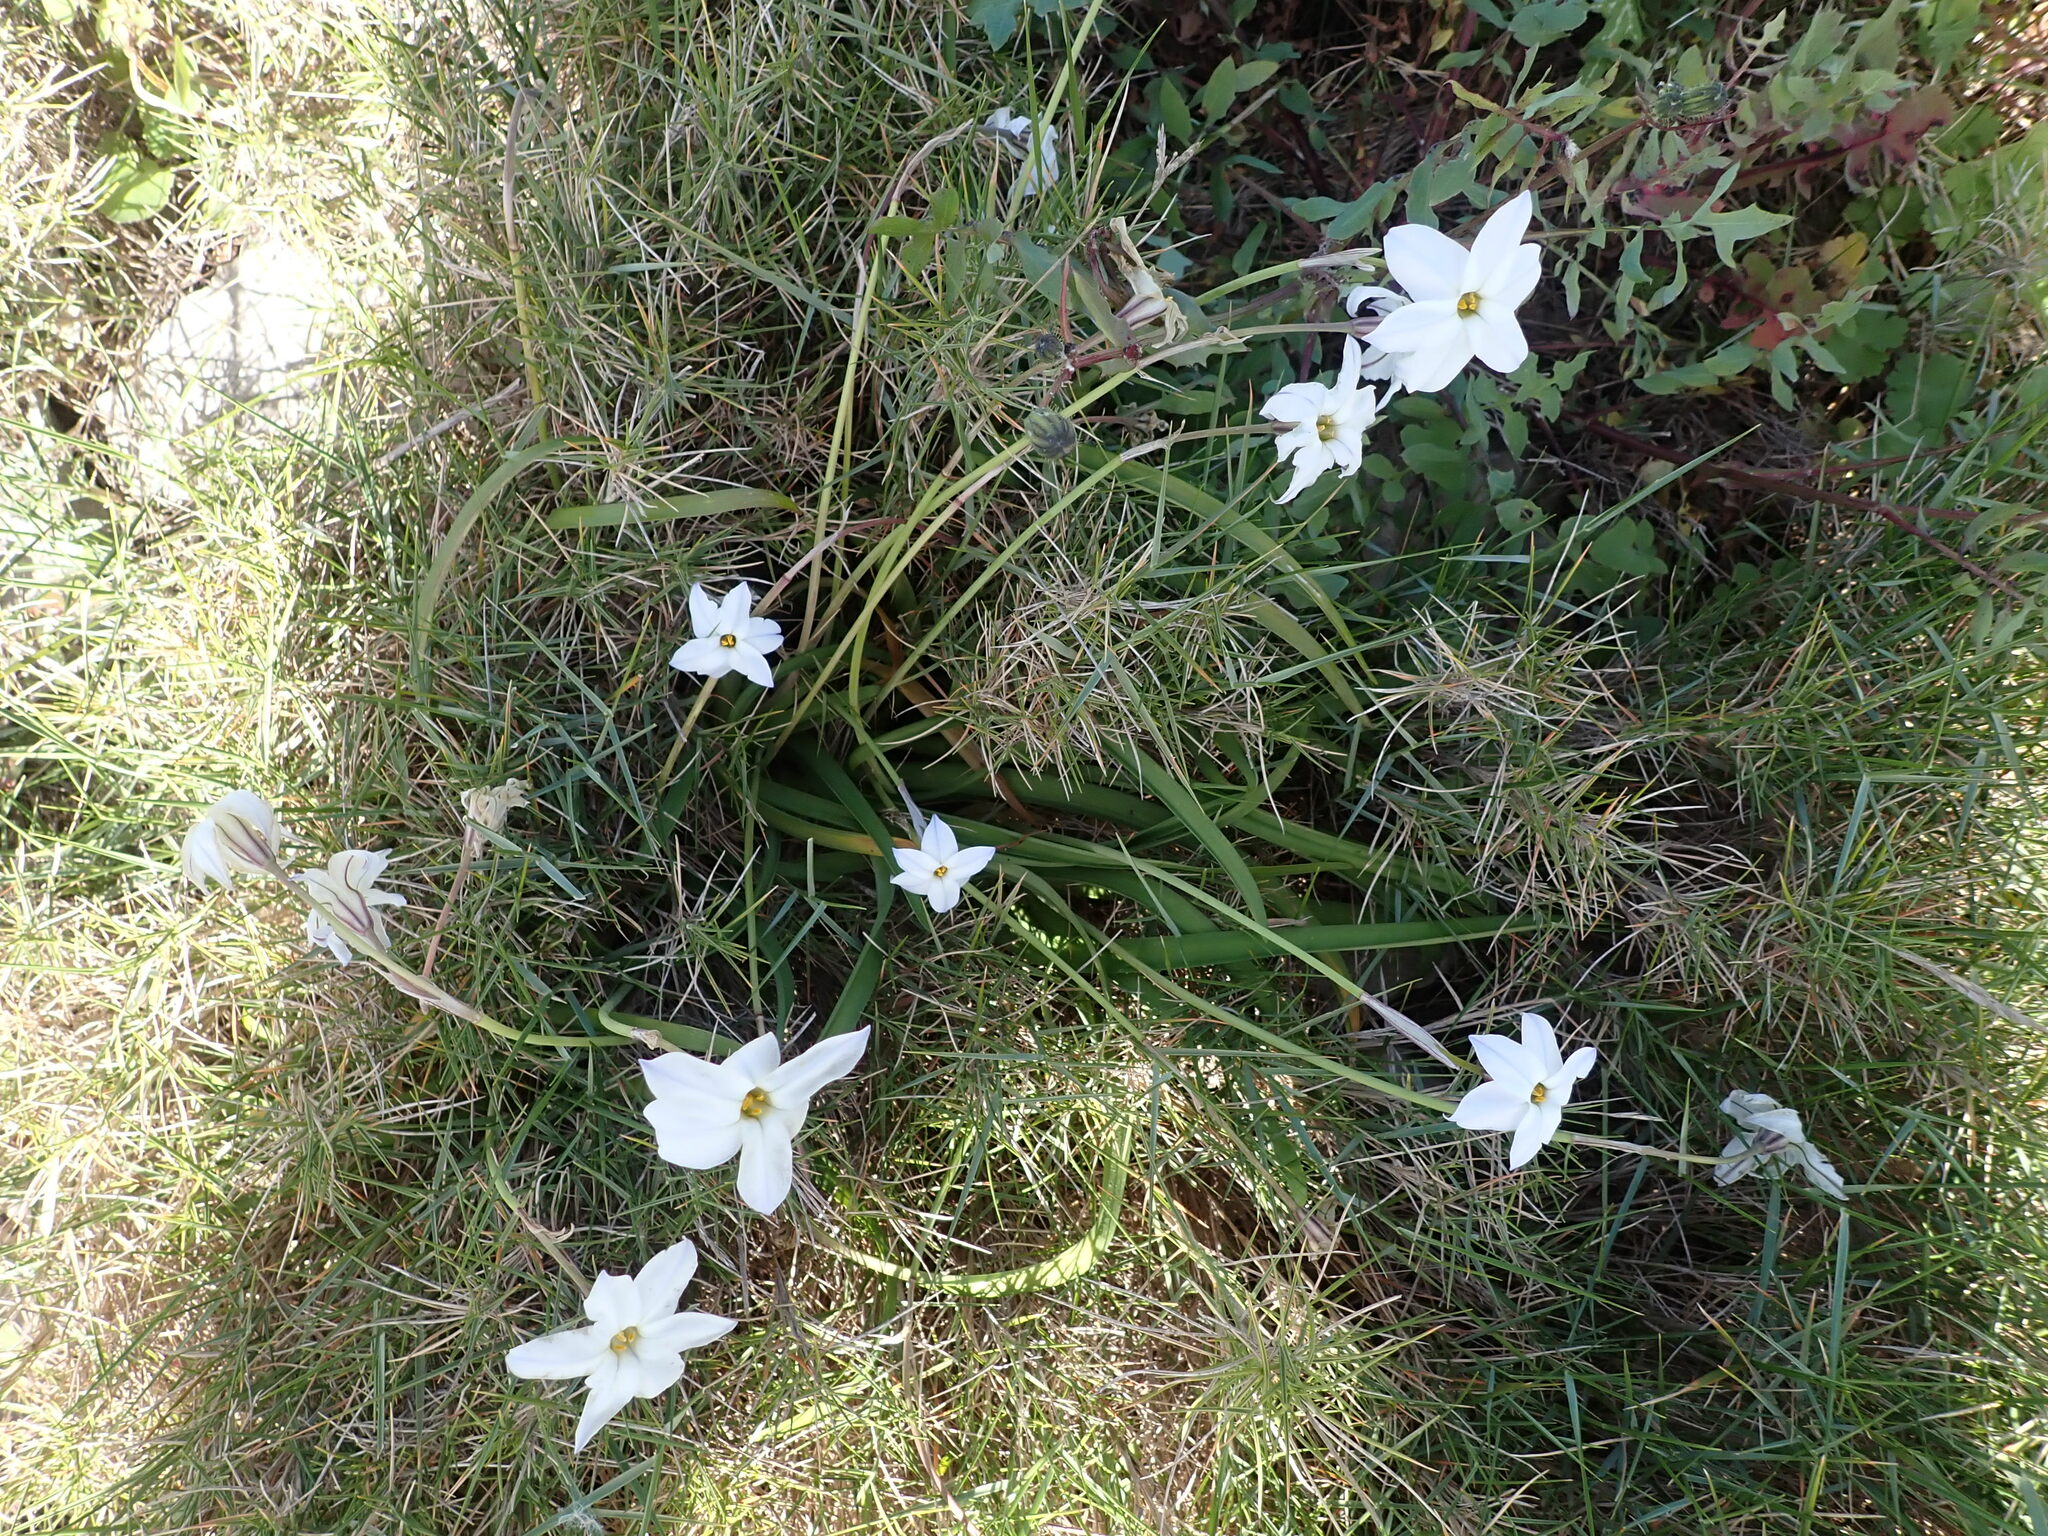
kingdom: Plantae
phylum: Tracheophyta
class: Liliopsida
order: Asparagales
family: Amaryllidaceae
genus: Ipheion
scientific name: Ipheion uniflorum
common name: Spring starflower
